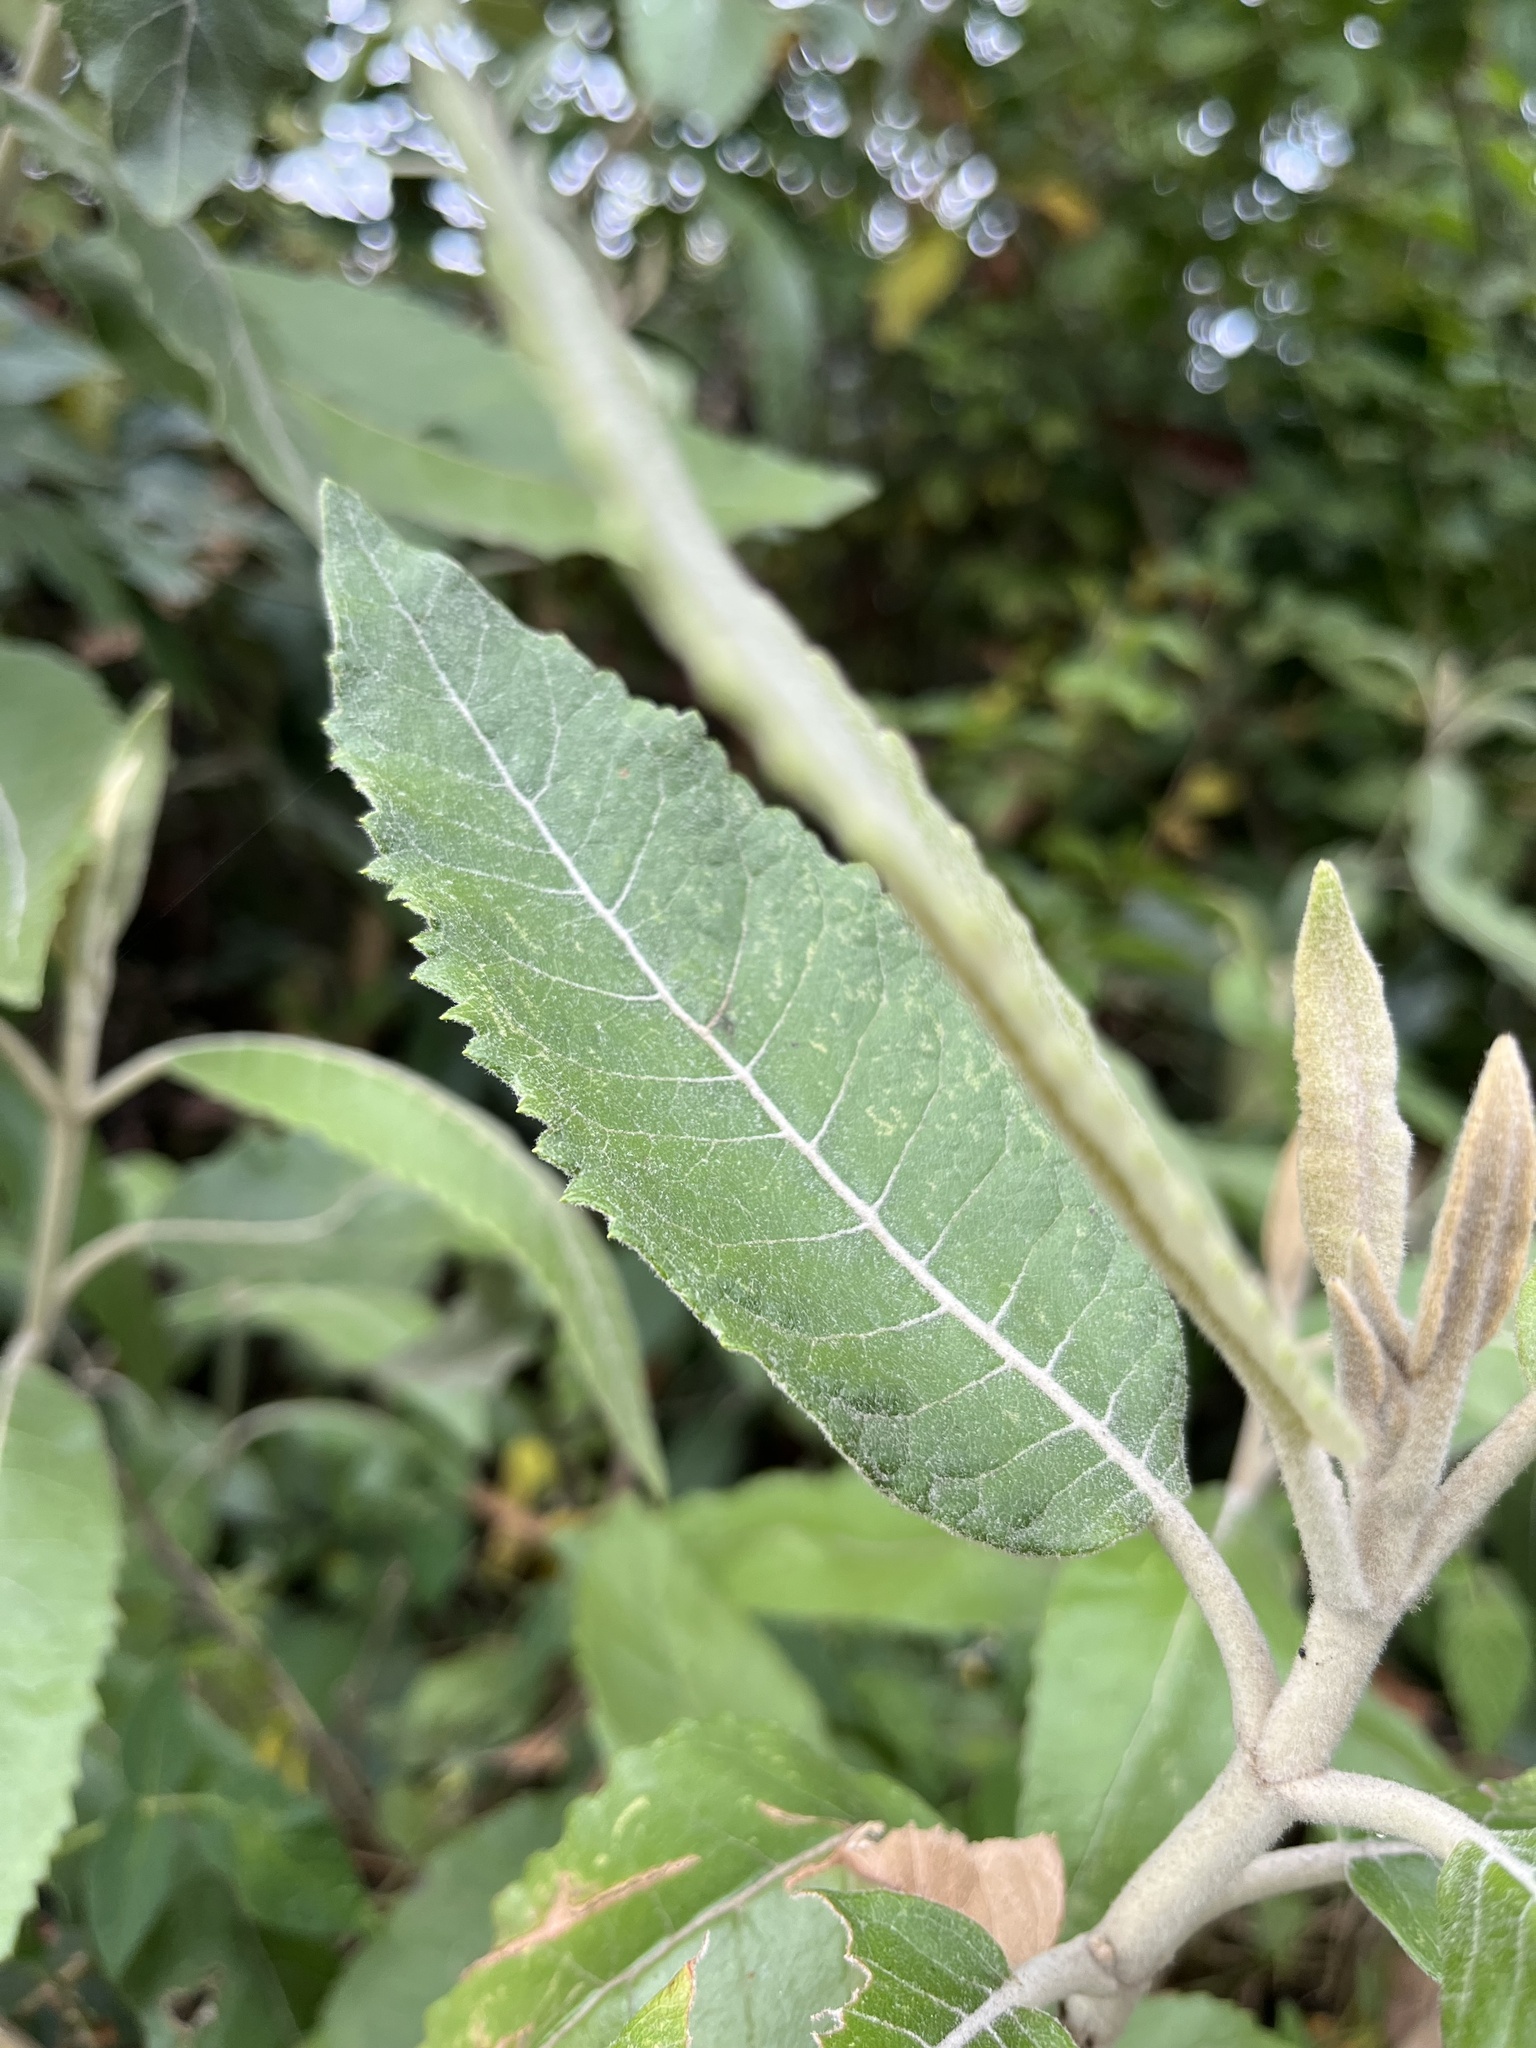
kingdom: Plantae
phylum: Tracheophyta
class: Magnoliopsida
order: Asterales
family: Asteraceae
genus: Ageratina
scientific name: Ageratina asclepiadea
